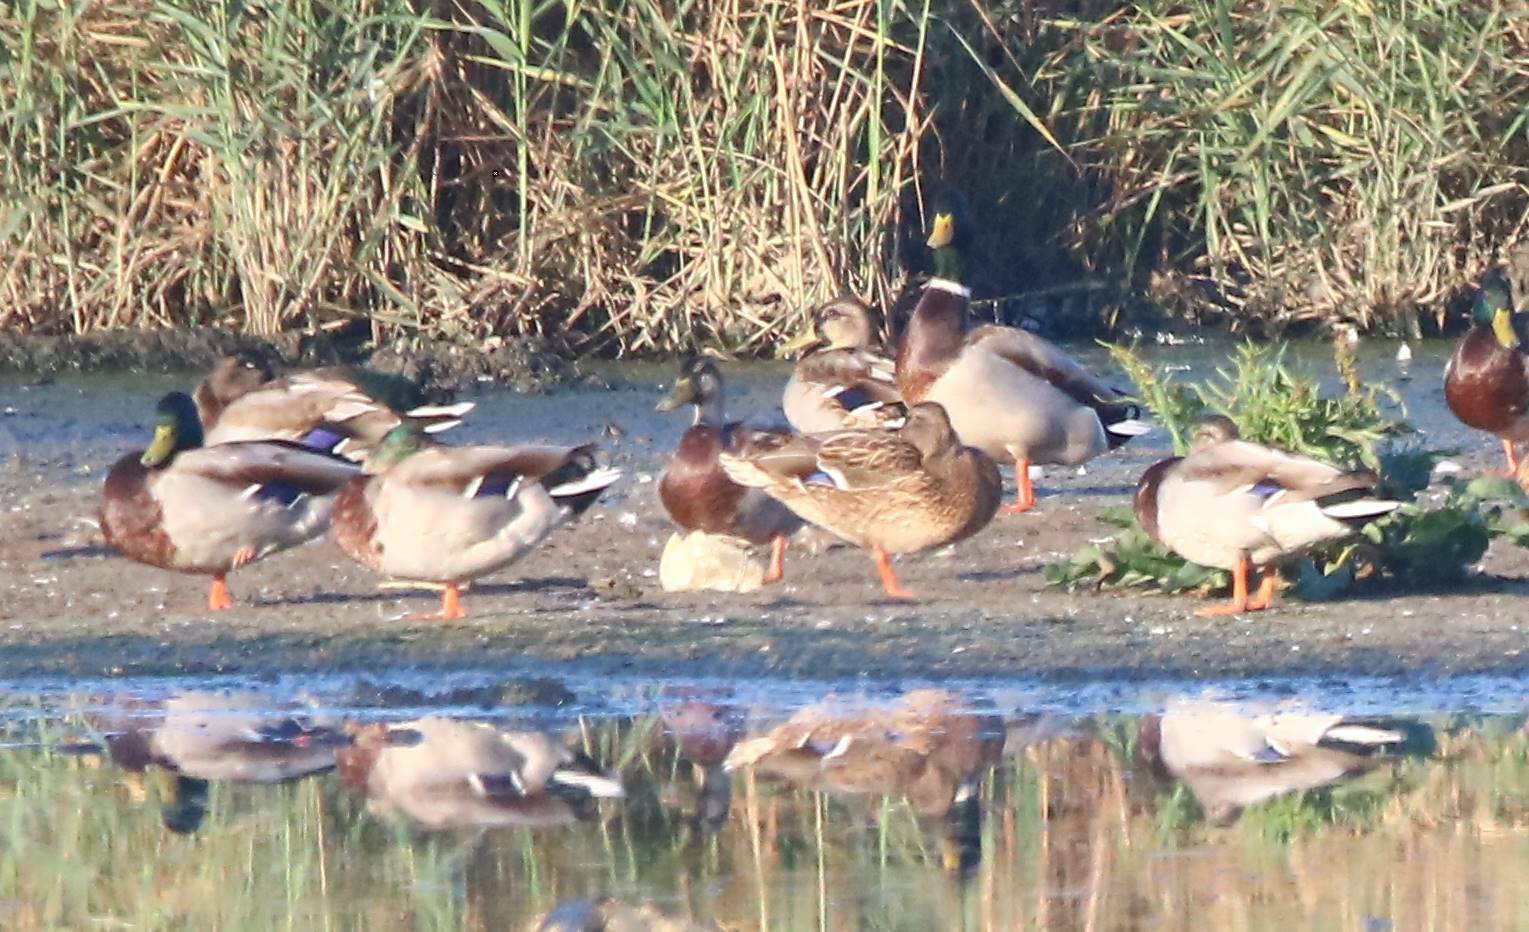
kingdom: Animalia
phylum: Chordata
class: Aves
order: Anseriformes
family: Anatidae
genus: Anas
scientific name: Anas platyrhynchos
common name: Mallard
